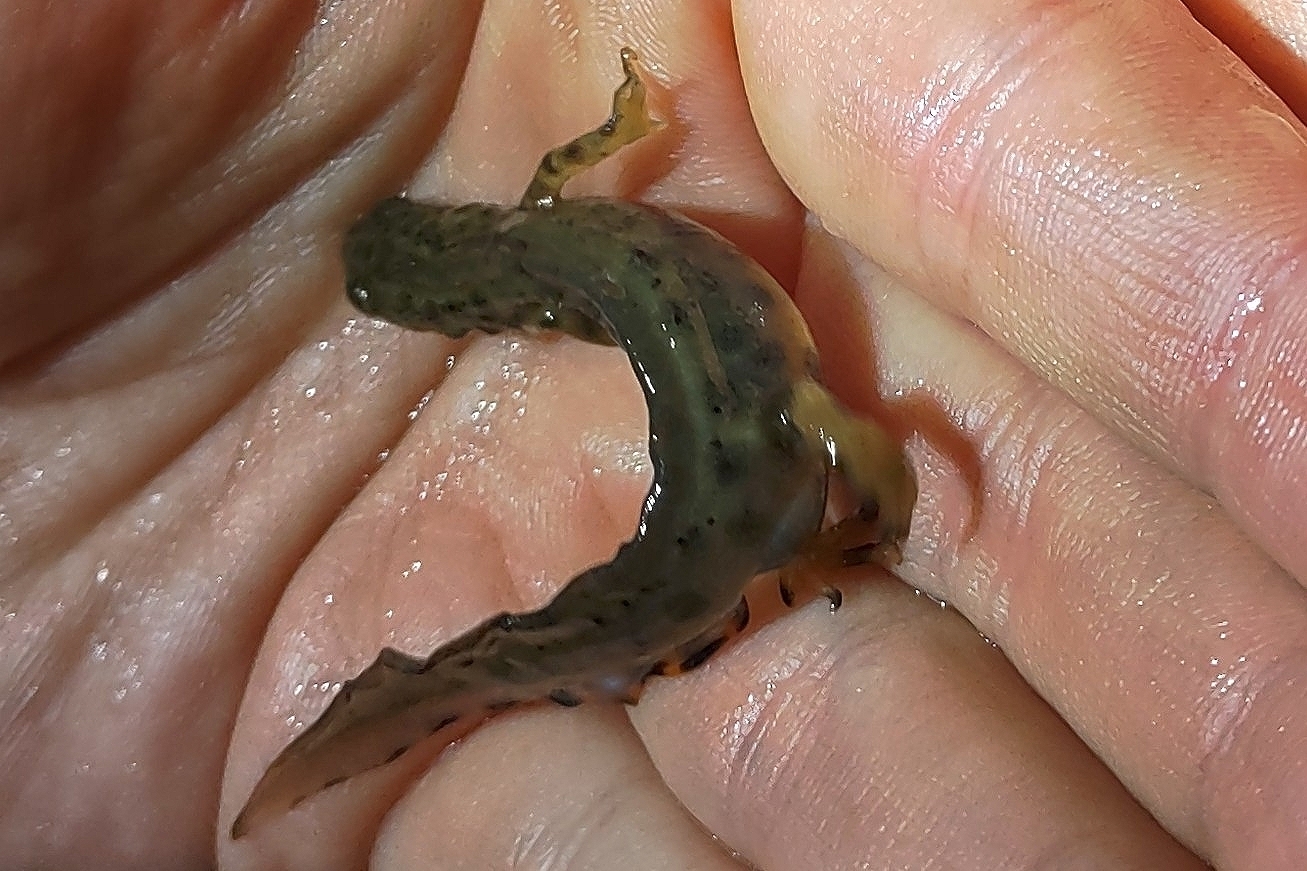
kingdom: Animalia
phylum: Chordata
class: Amphibia
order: Caudata
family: Salamandridae
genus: Lissotriton
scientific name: Lissotriton vulgaris
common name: Smooth newt
